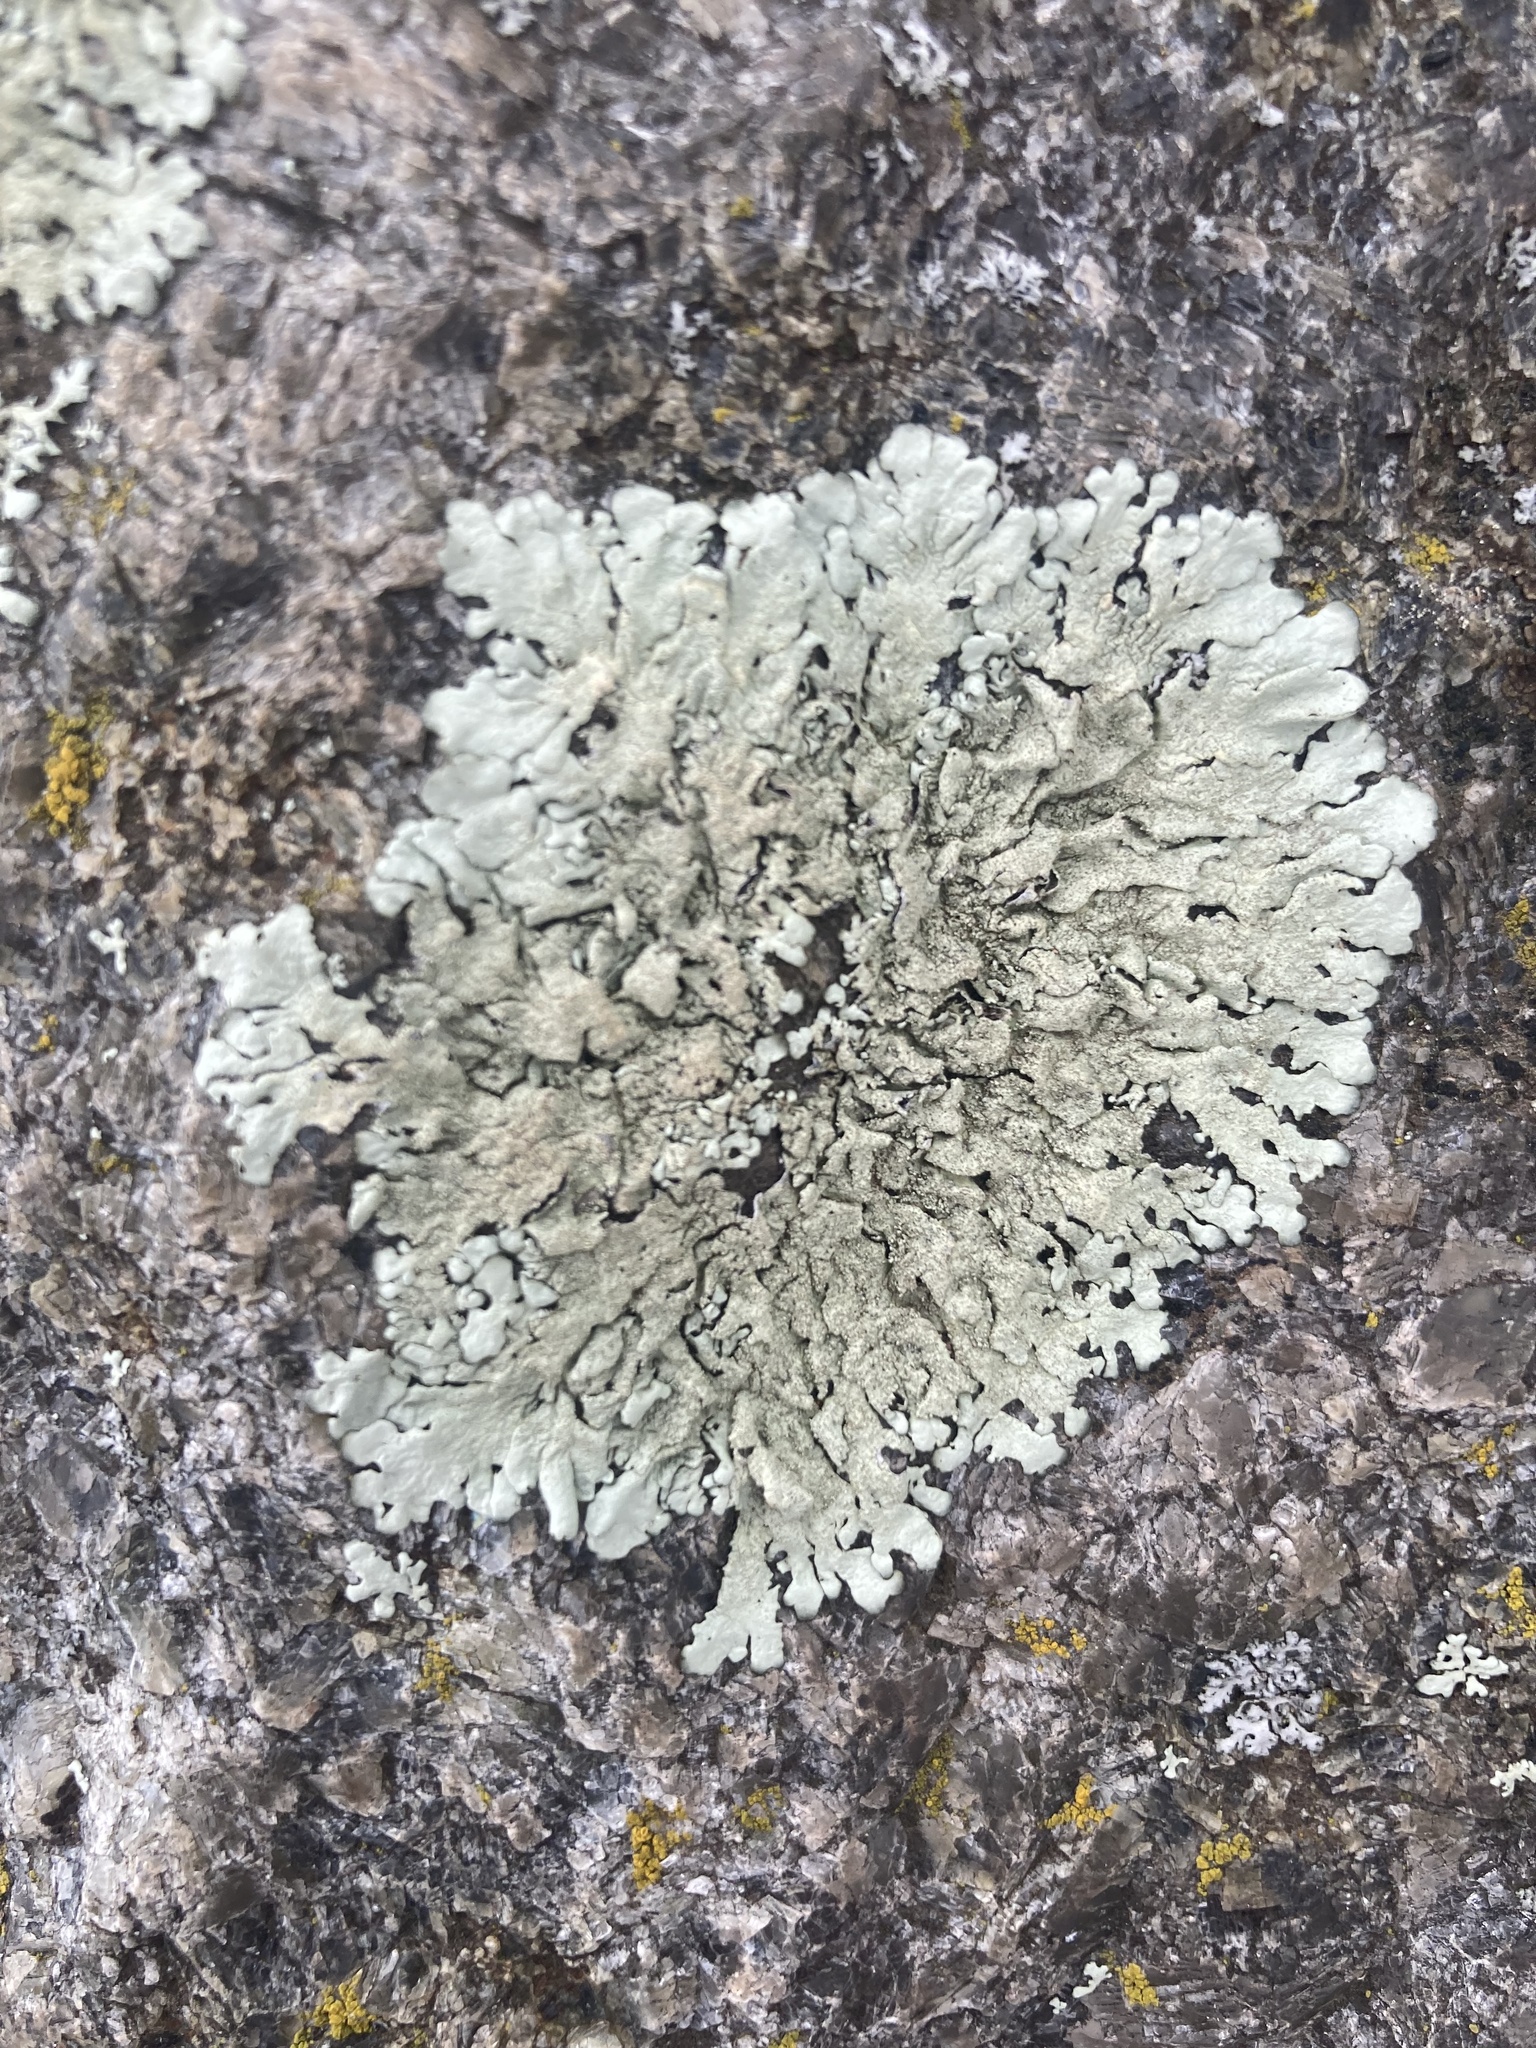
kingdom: Fungi
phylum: Ascomycota
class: Lecanoromycetes
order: Lecanorales
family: Parmeliaceae
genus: Xanthoparmelia
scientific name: Xanthoparmelia conspersa
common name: Peppered rock shield
